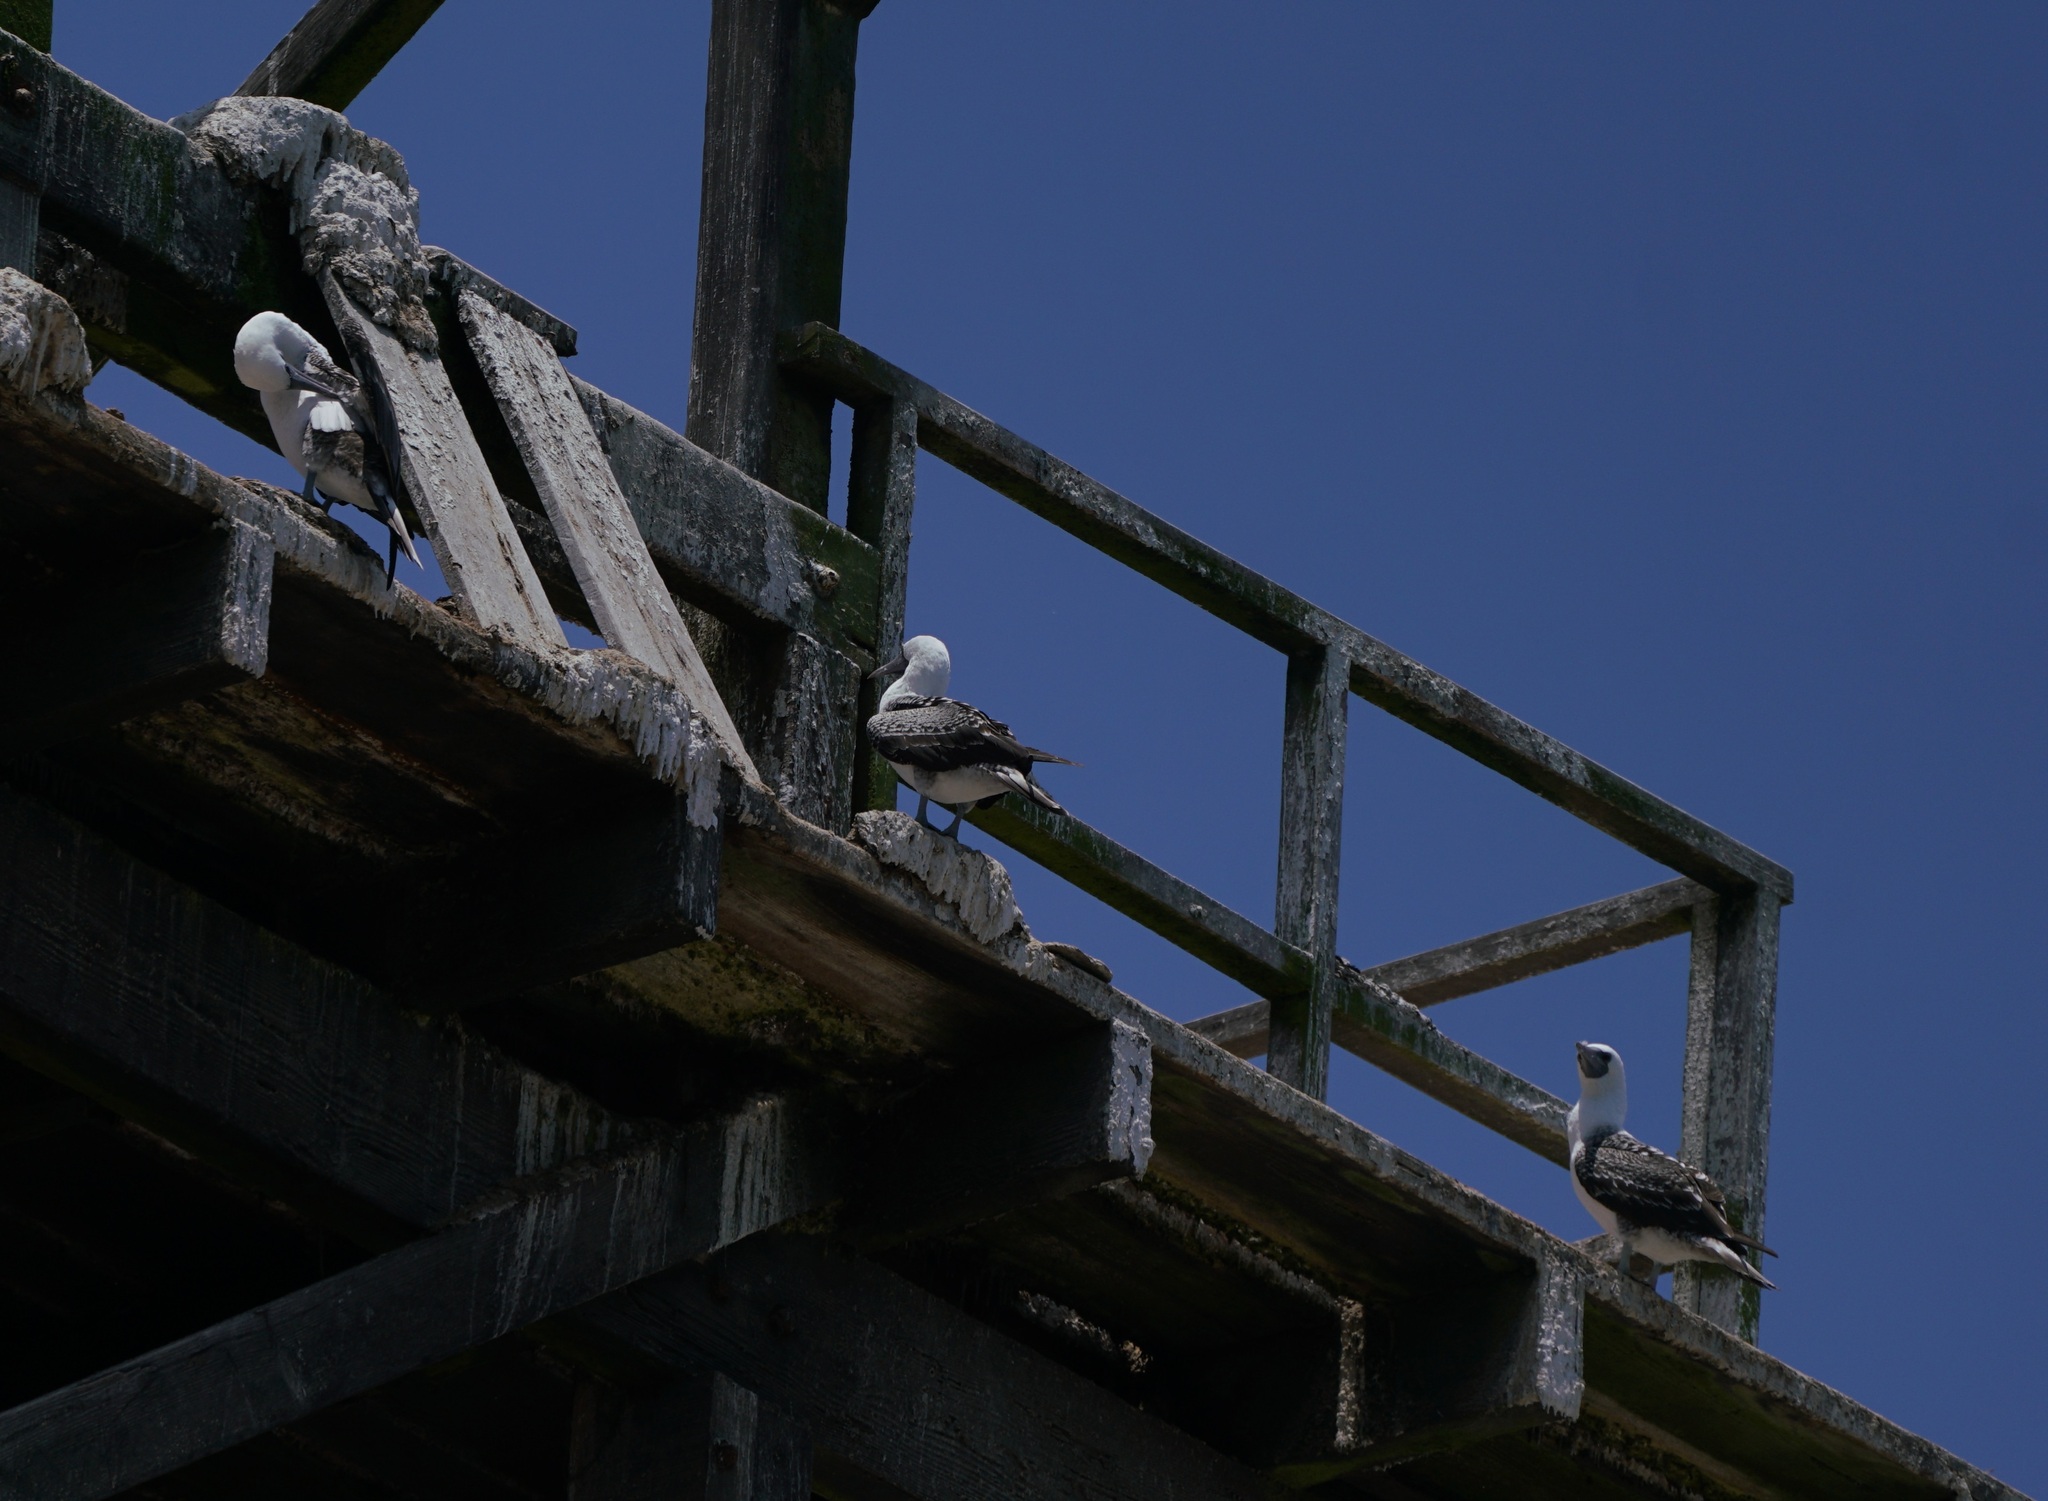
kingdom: Animalia
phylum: Chordata
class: Aves
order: Suliformes
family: Sulidae
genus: Sula
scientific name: Sula variegata
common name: Peruvian booby
